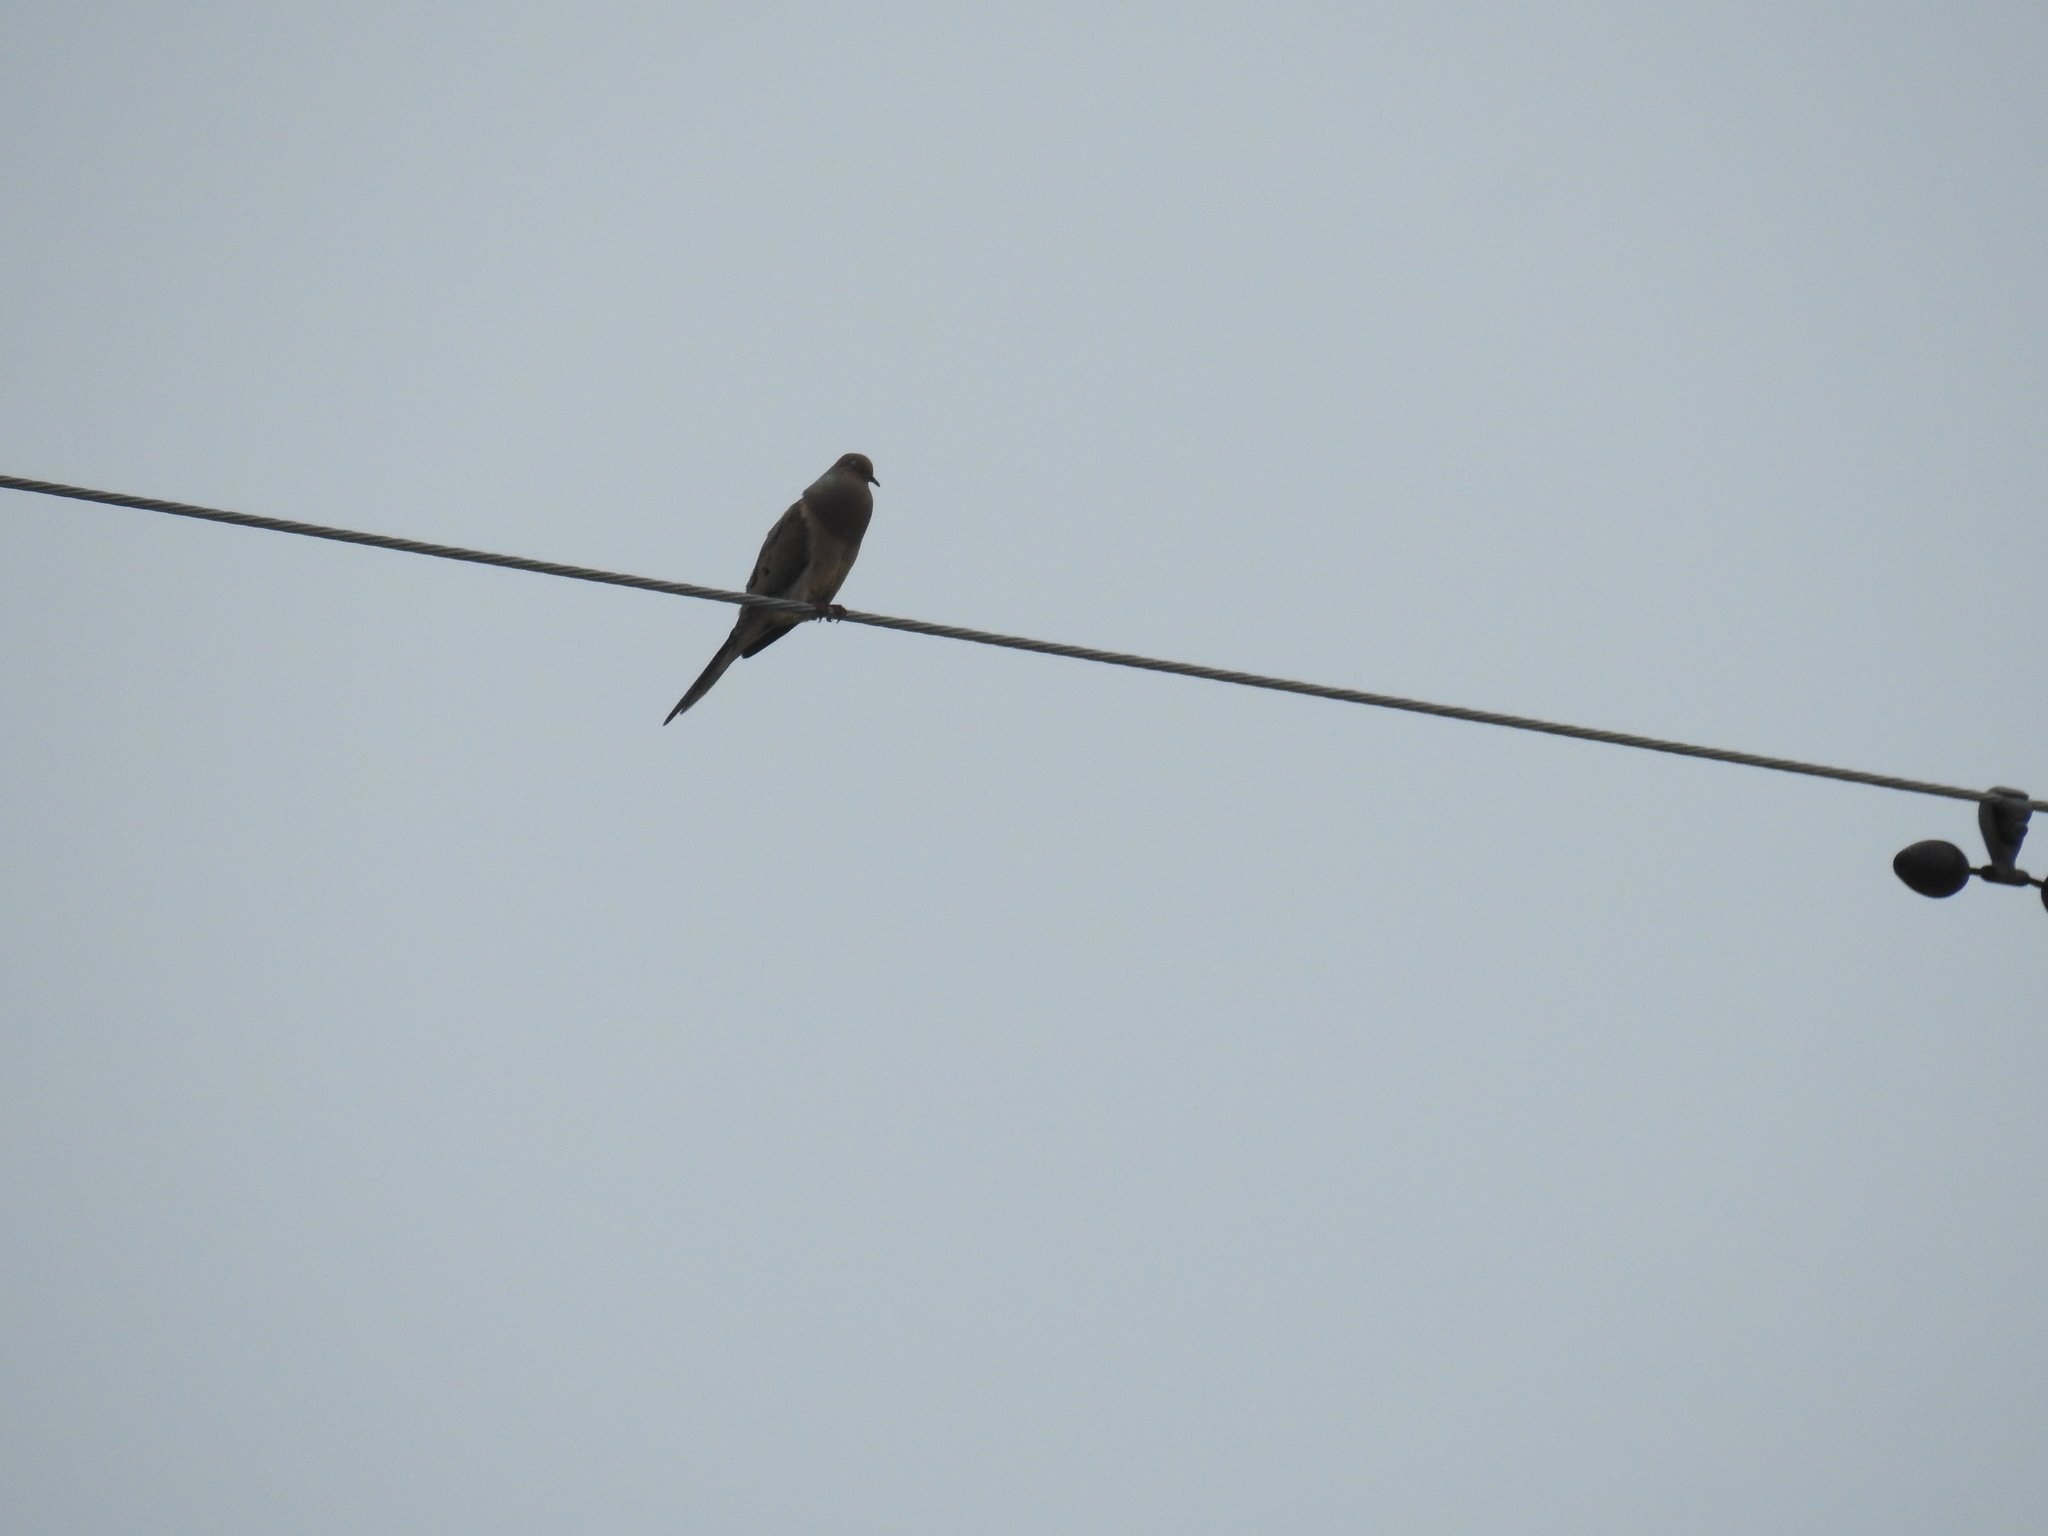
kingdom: Animalia
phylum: Chordata
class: Aves
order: Columbiformes
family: Columbidae
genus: Zenaida
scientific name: Zenaida macroura
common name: Mourning dove
